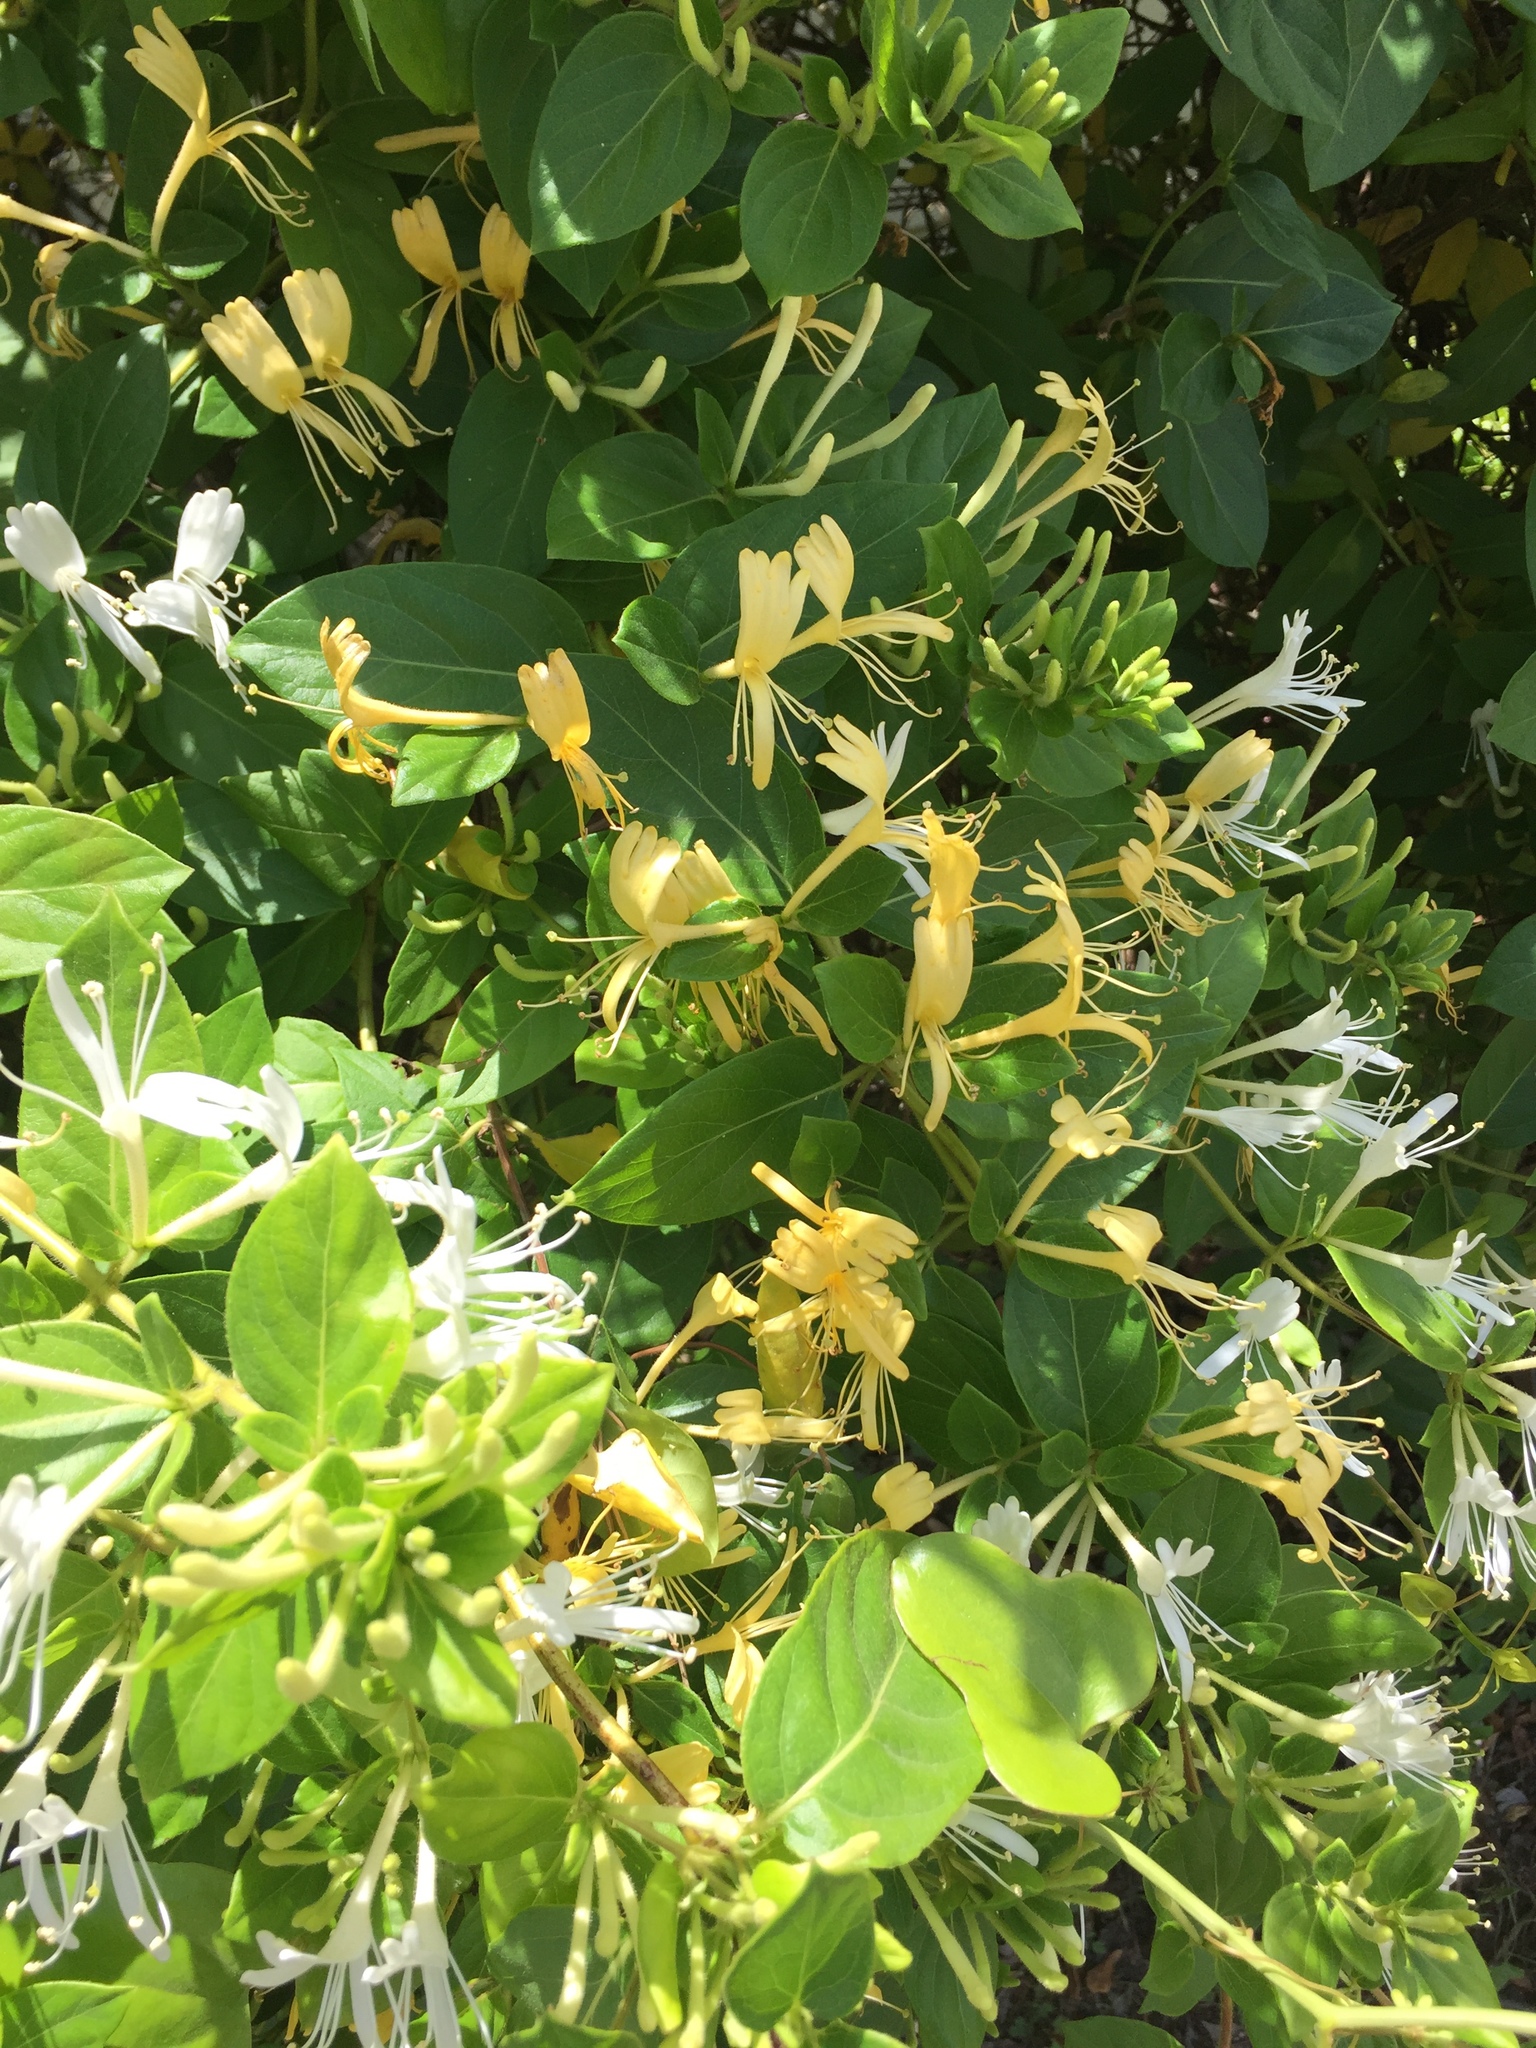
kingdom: Plantae
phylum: Tracheophyta
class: Magnoliopsida
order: Dipsacales
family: Caprifoliaceae
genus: Lonicera
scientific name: Lonicera japonica
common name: Japanese honeysuckle
